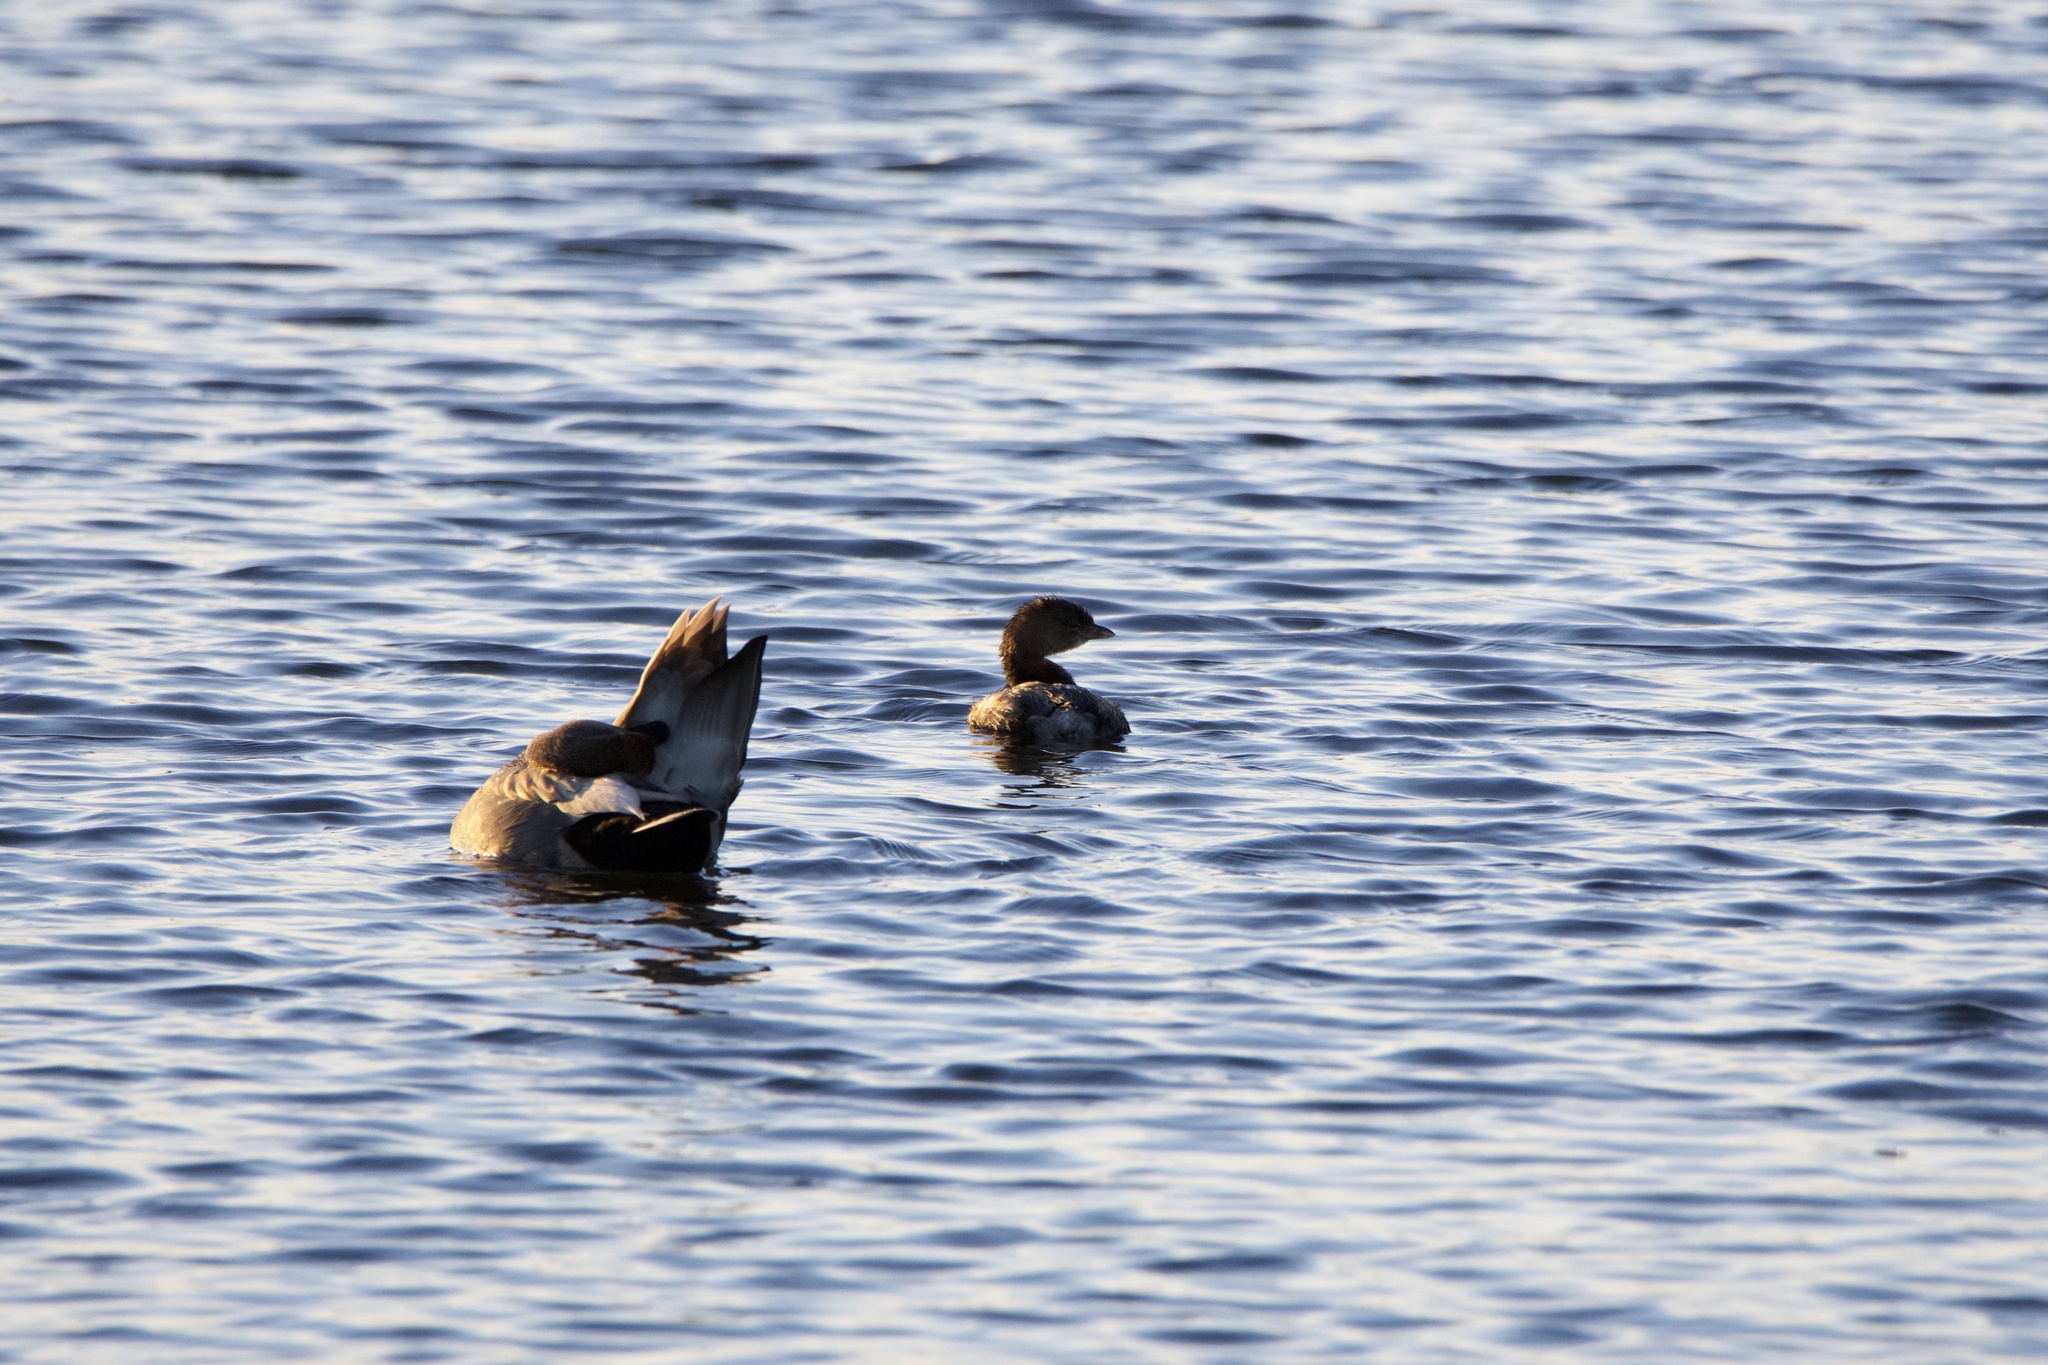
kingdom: Animalia
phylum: Chordata
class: Aves
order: Podicipediformes
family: Podicipedidae
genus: Podilymbus
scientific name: Podilymbus podiceps
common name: Pied-billed grebe
